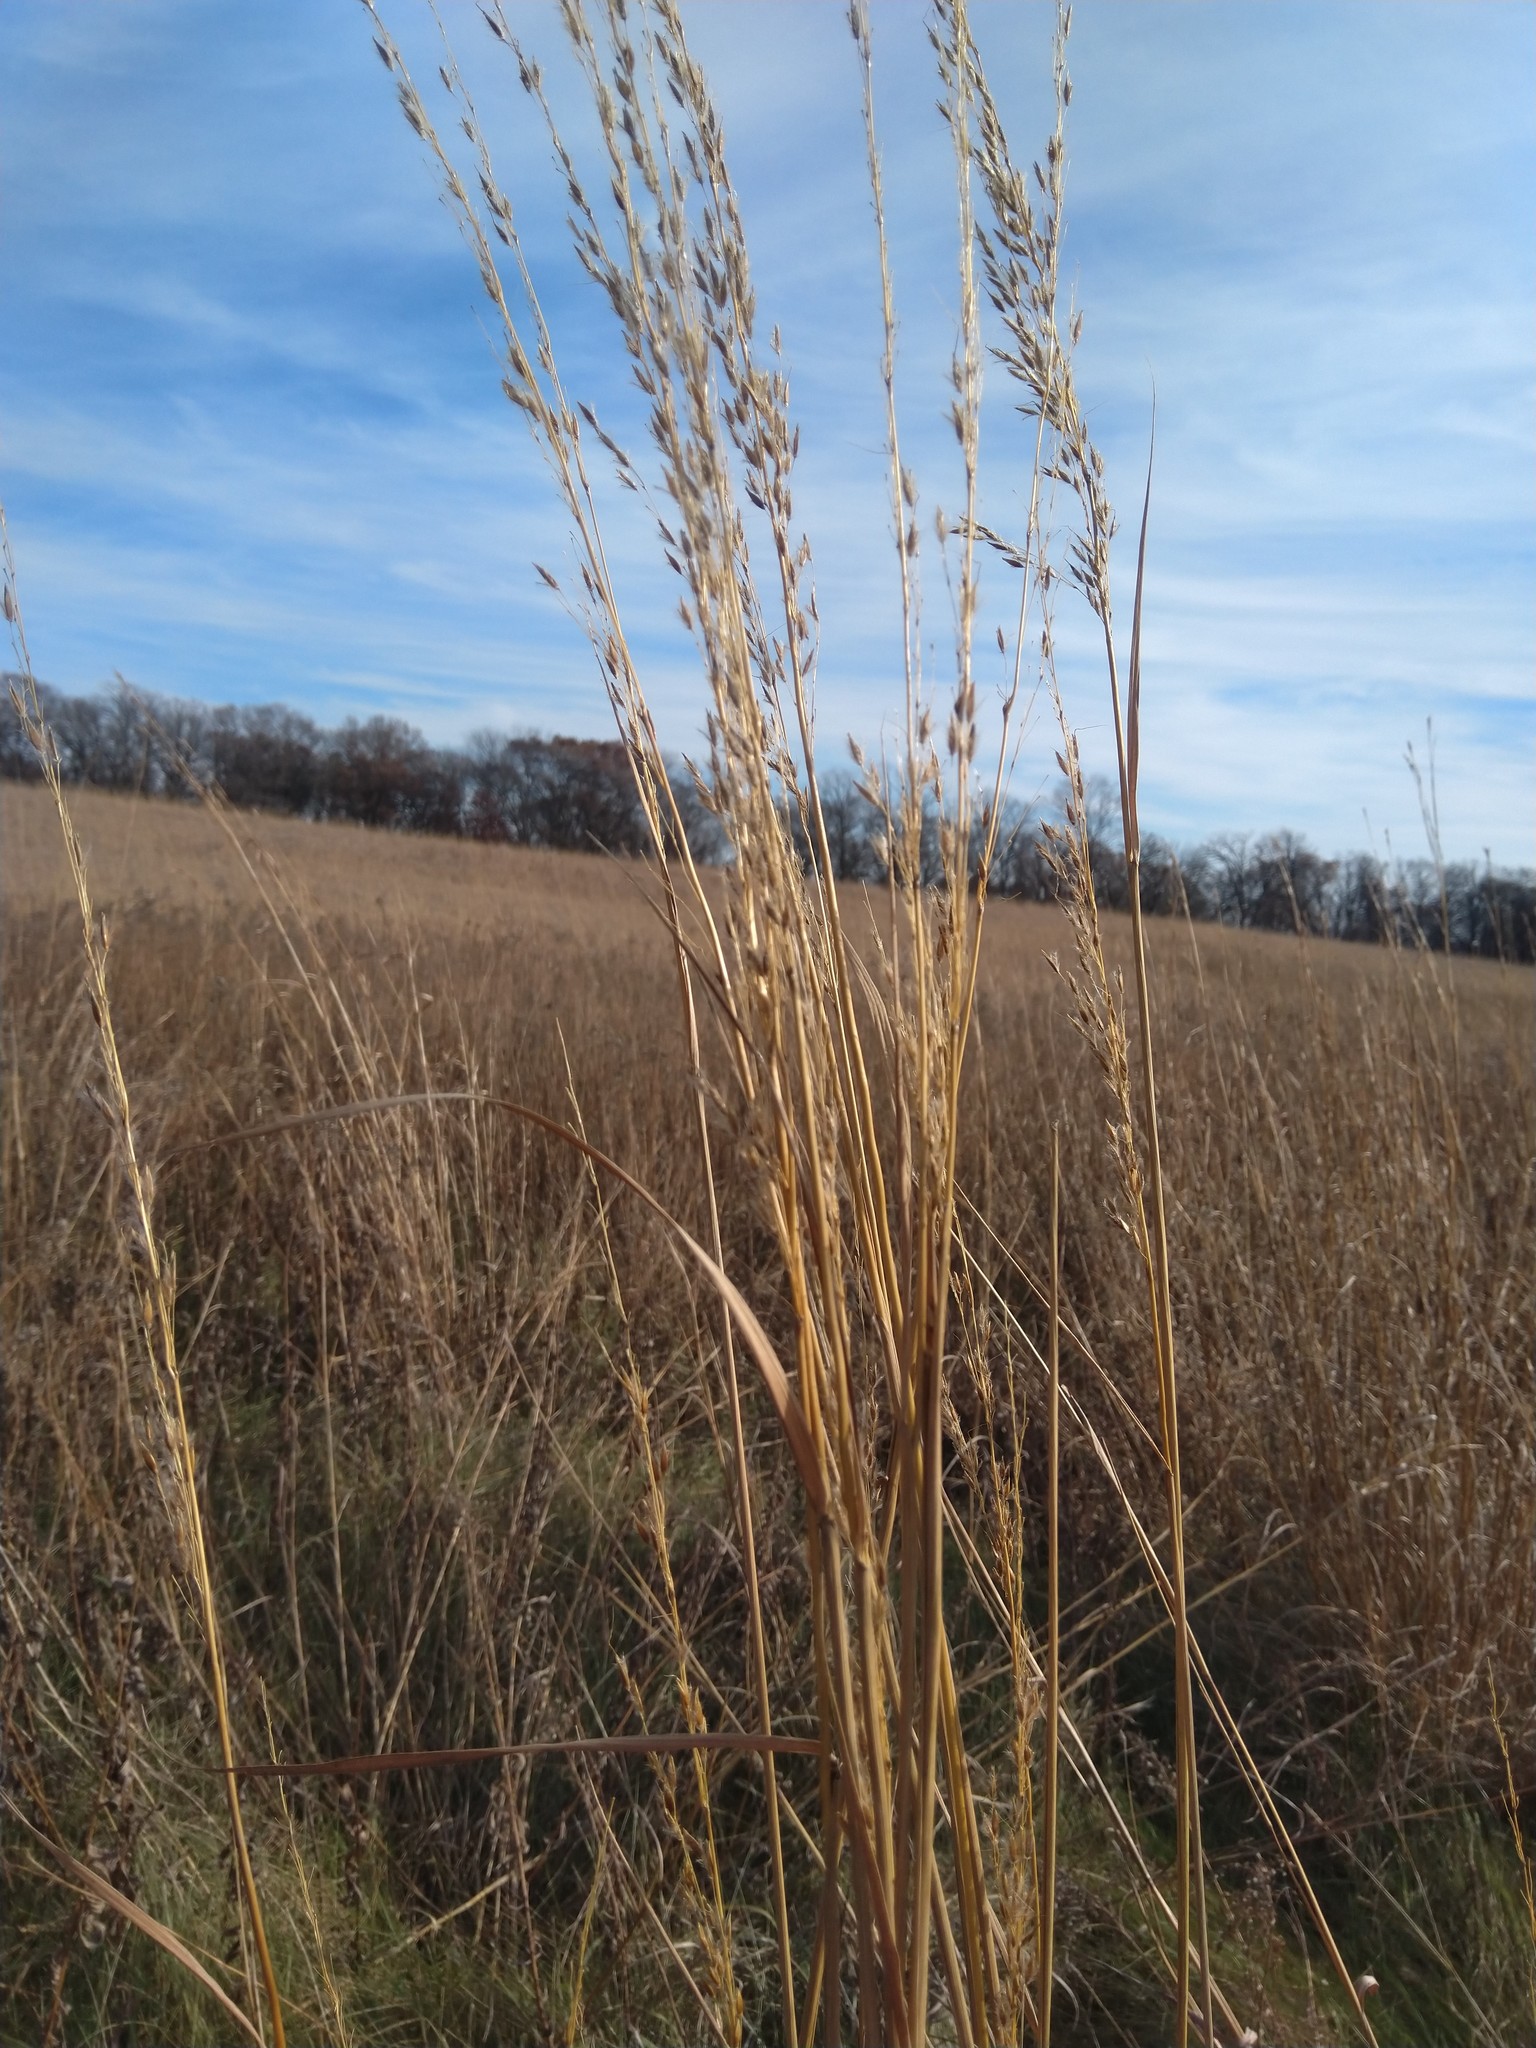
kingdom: Plantae
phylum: Tracheophyta
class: Liliopsida
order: Poales
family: Poaceae
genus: Sorghastrum
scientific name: Sorghastrum nutans
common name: Indian grass
